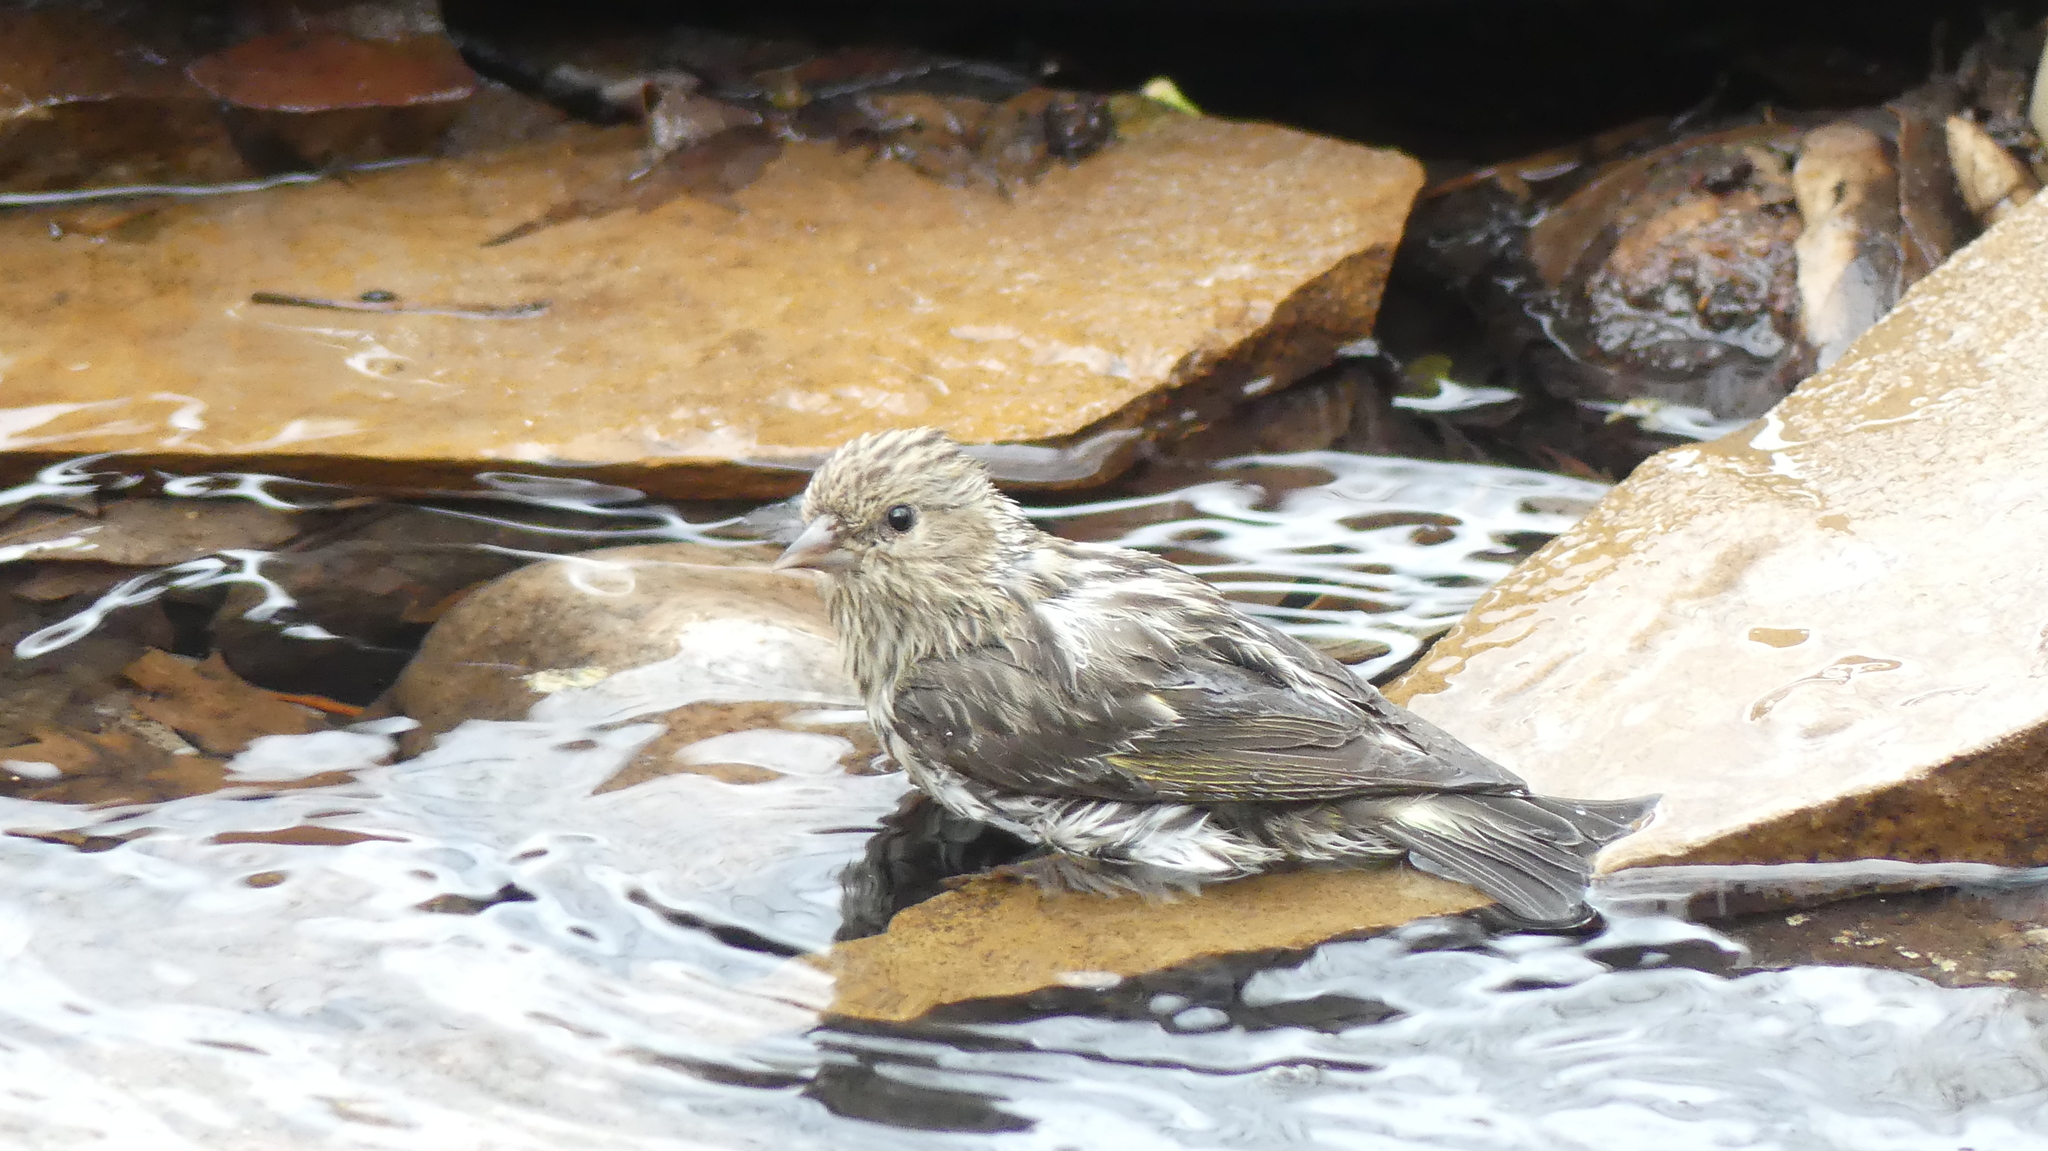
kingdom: Animalia
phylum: Chordata
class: Aves
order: Passeriformes
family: Fringillidae
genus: Spinus
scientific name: Spinus pinus
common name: Pine siskin
